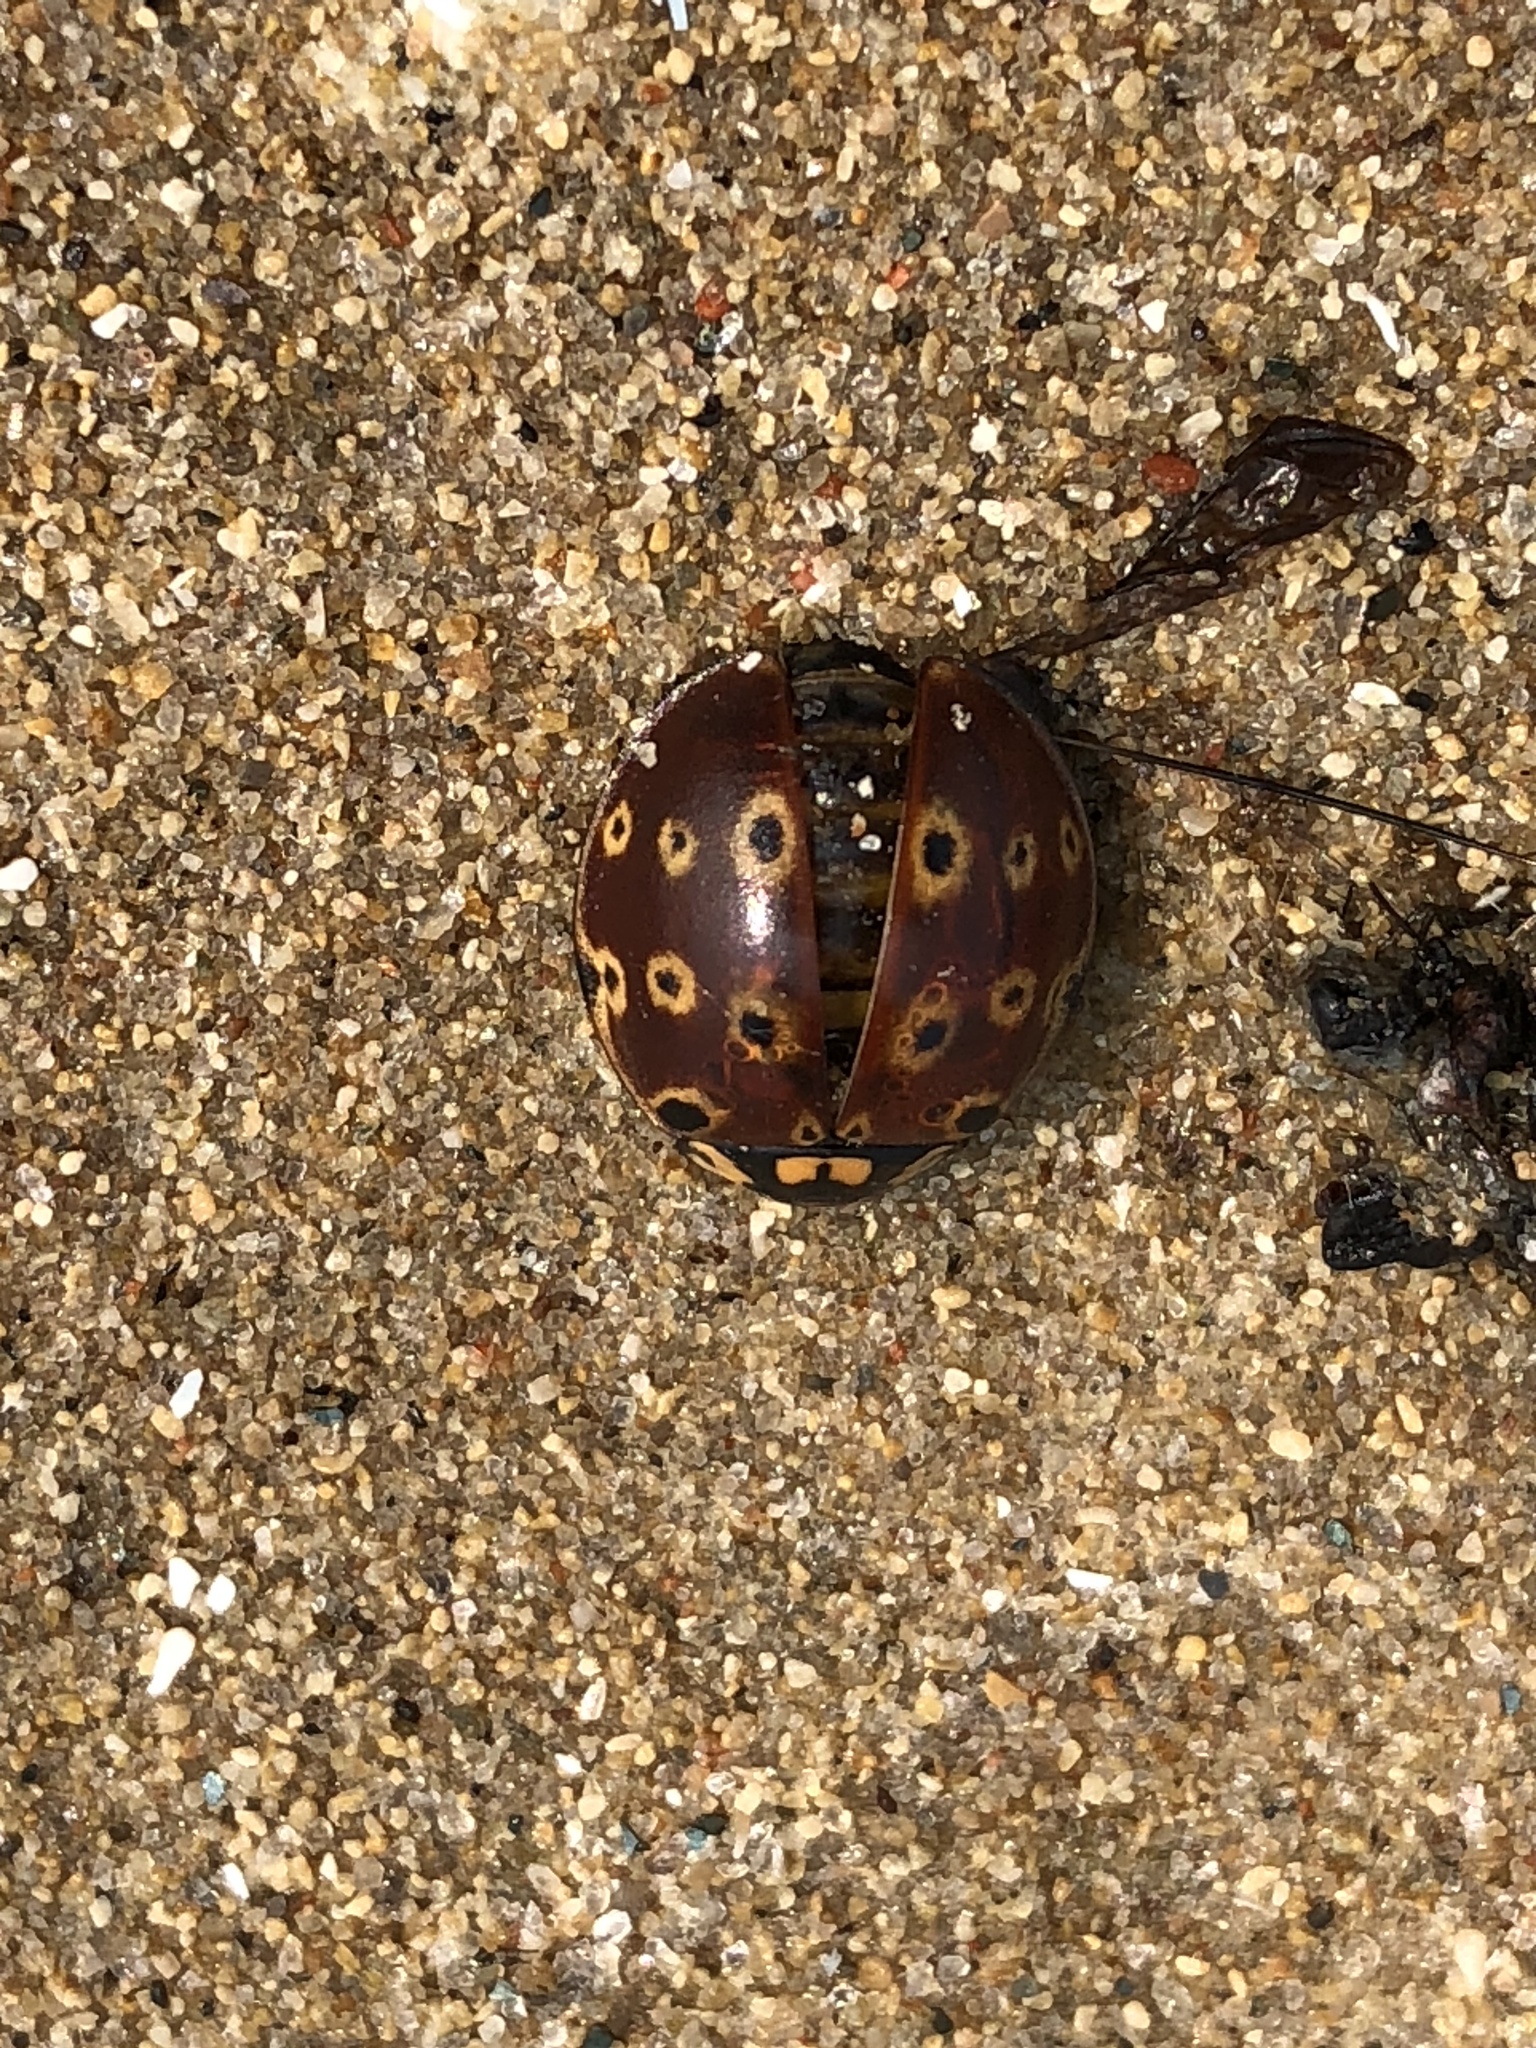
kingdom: Animalia
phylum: Arthropoda
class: Insecta
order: Coleoptera
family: Coccinellidae
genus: Anatis
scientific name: Anatis mali
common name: Eye-spotted lady beetle
